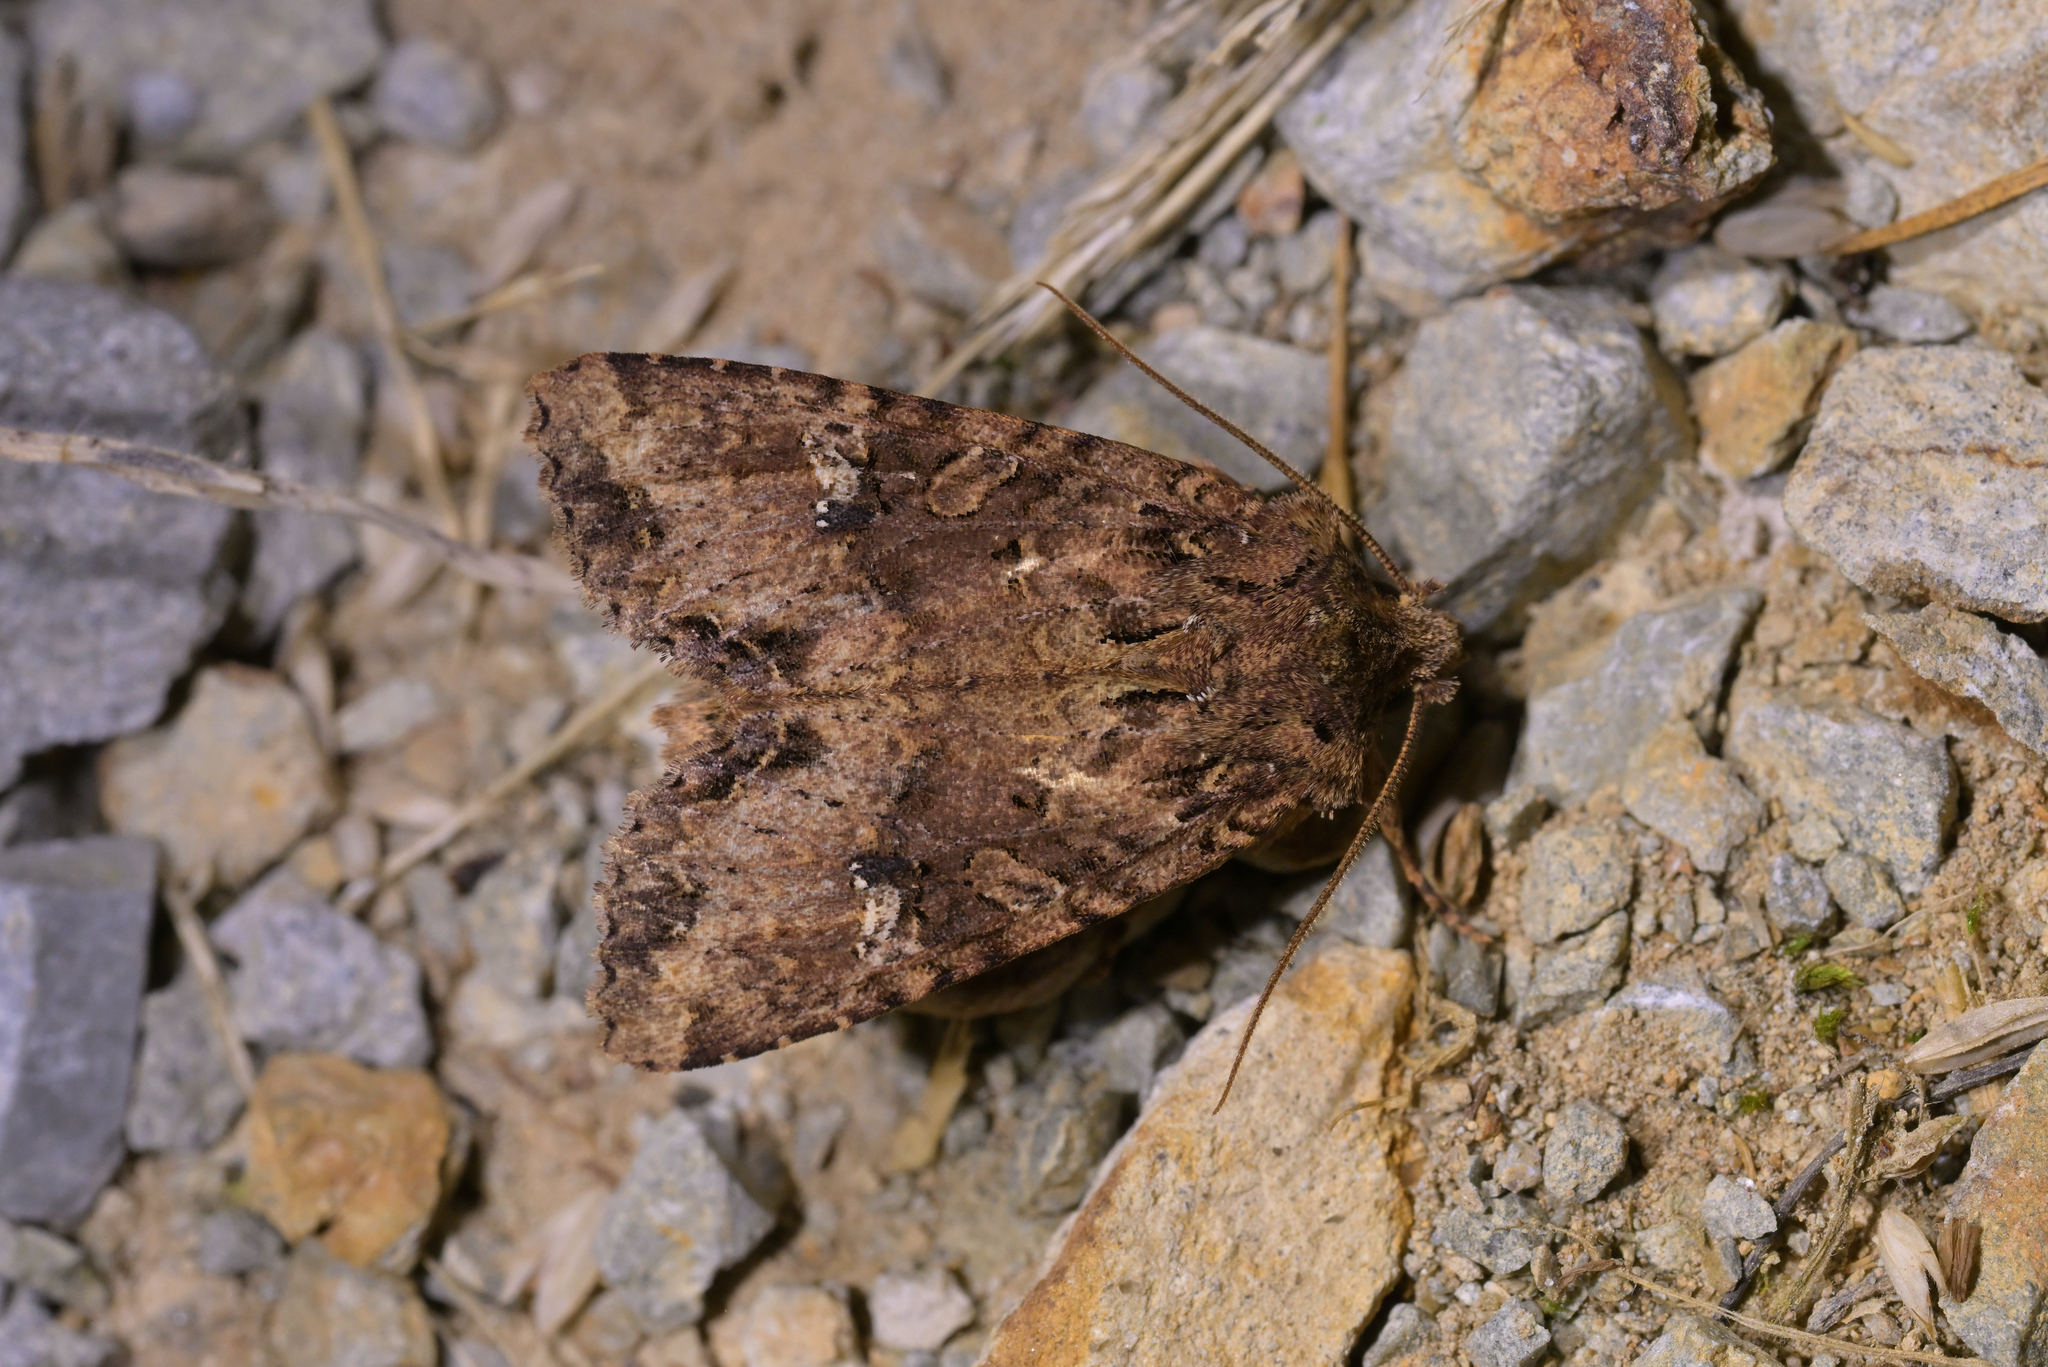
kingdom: Animalia
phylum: Arthropoda
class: Insecta
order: Lepidoptera
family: Noctuidae
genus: Meterana
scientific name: Meterana
